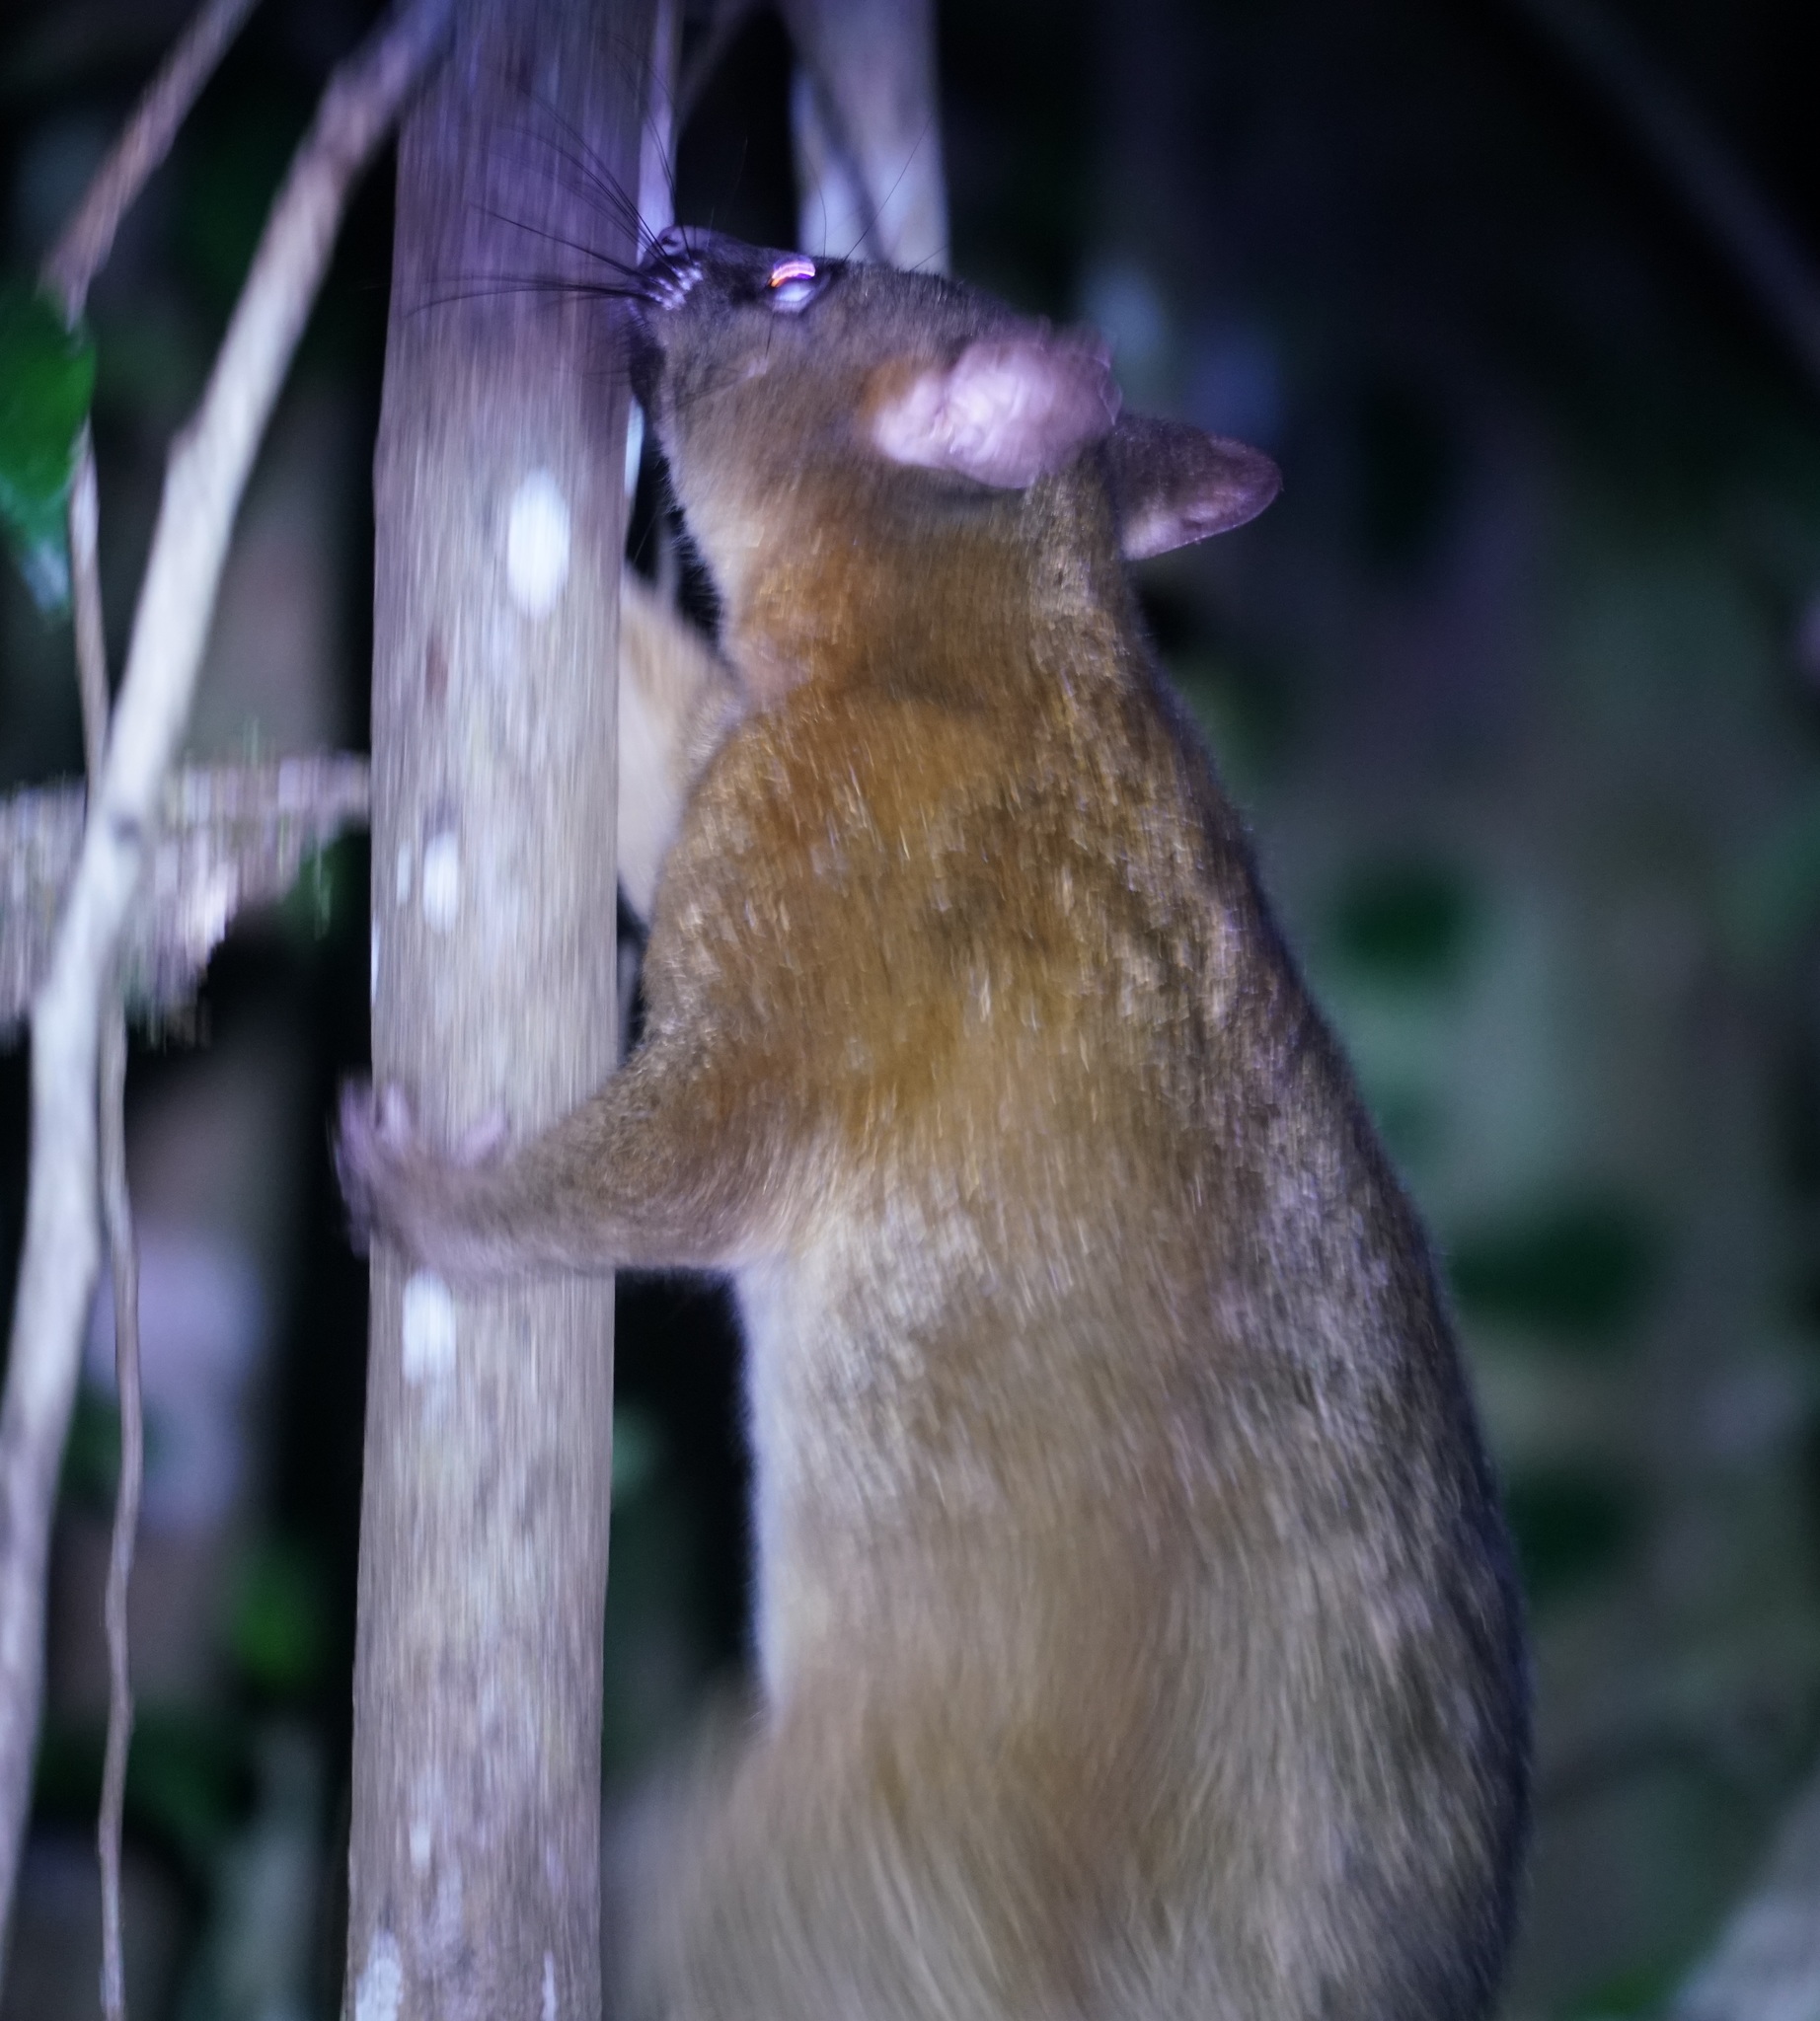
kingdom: Animalia
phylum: Chordata
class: Mammalia
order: Diprotodontia
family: Phalangeridae
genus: Trichosurus
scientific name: Trichosurus vulpecula
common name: Common brushtail
